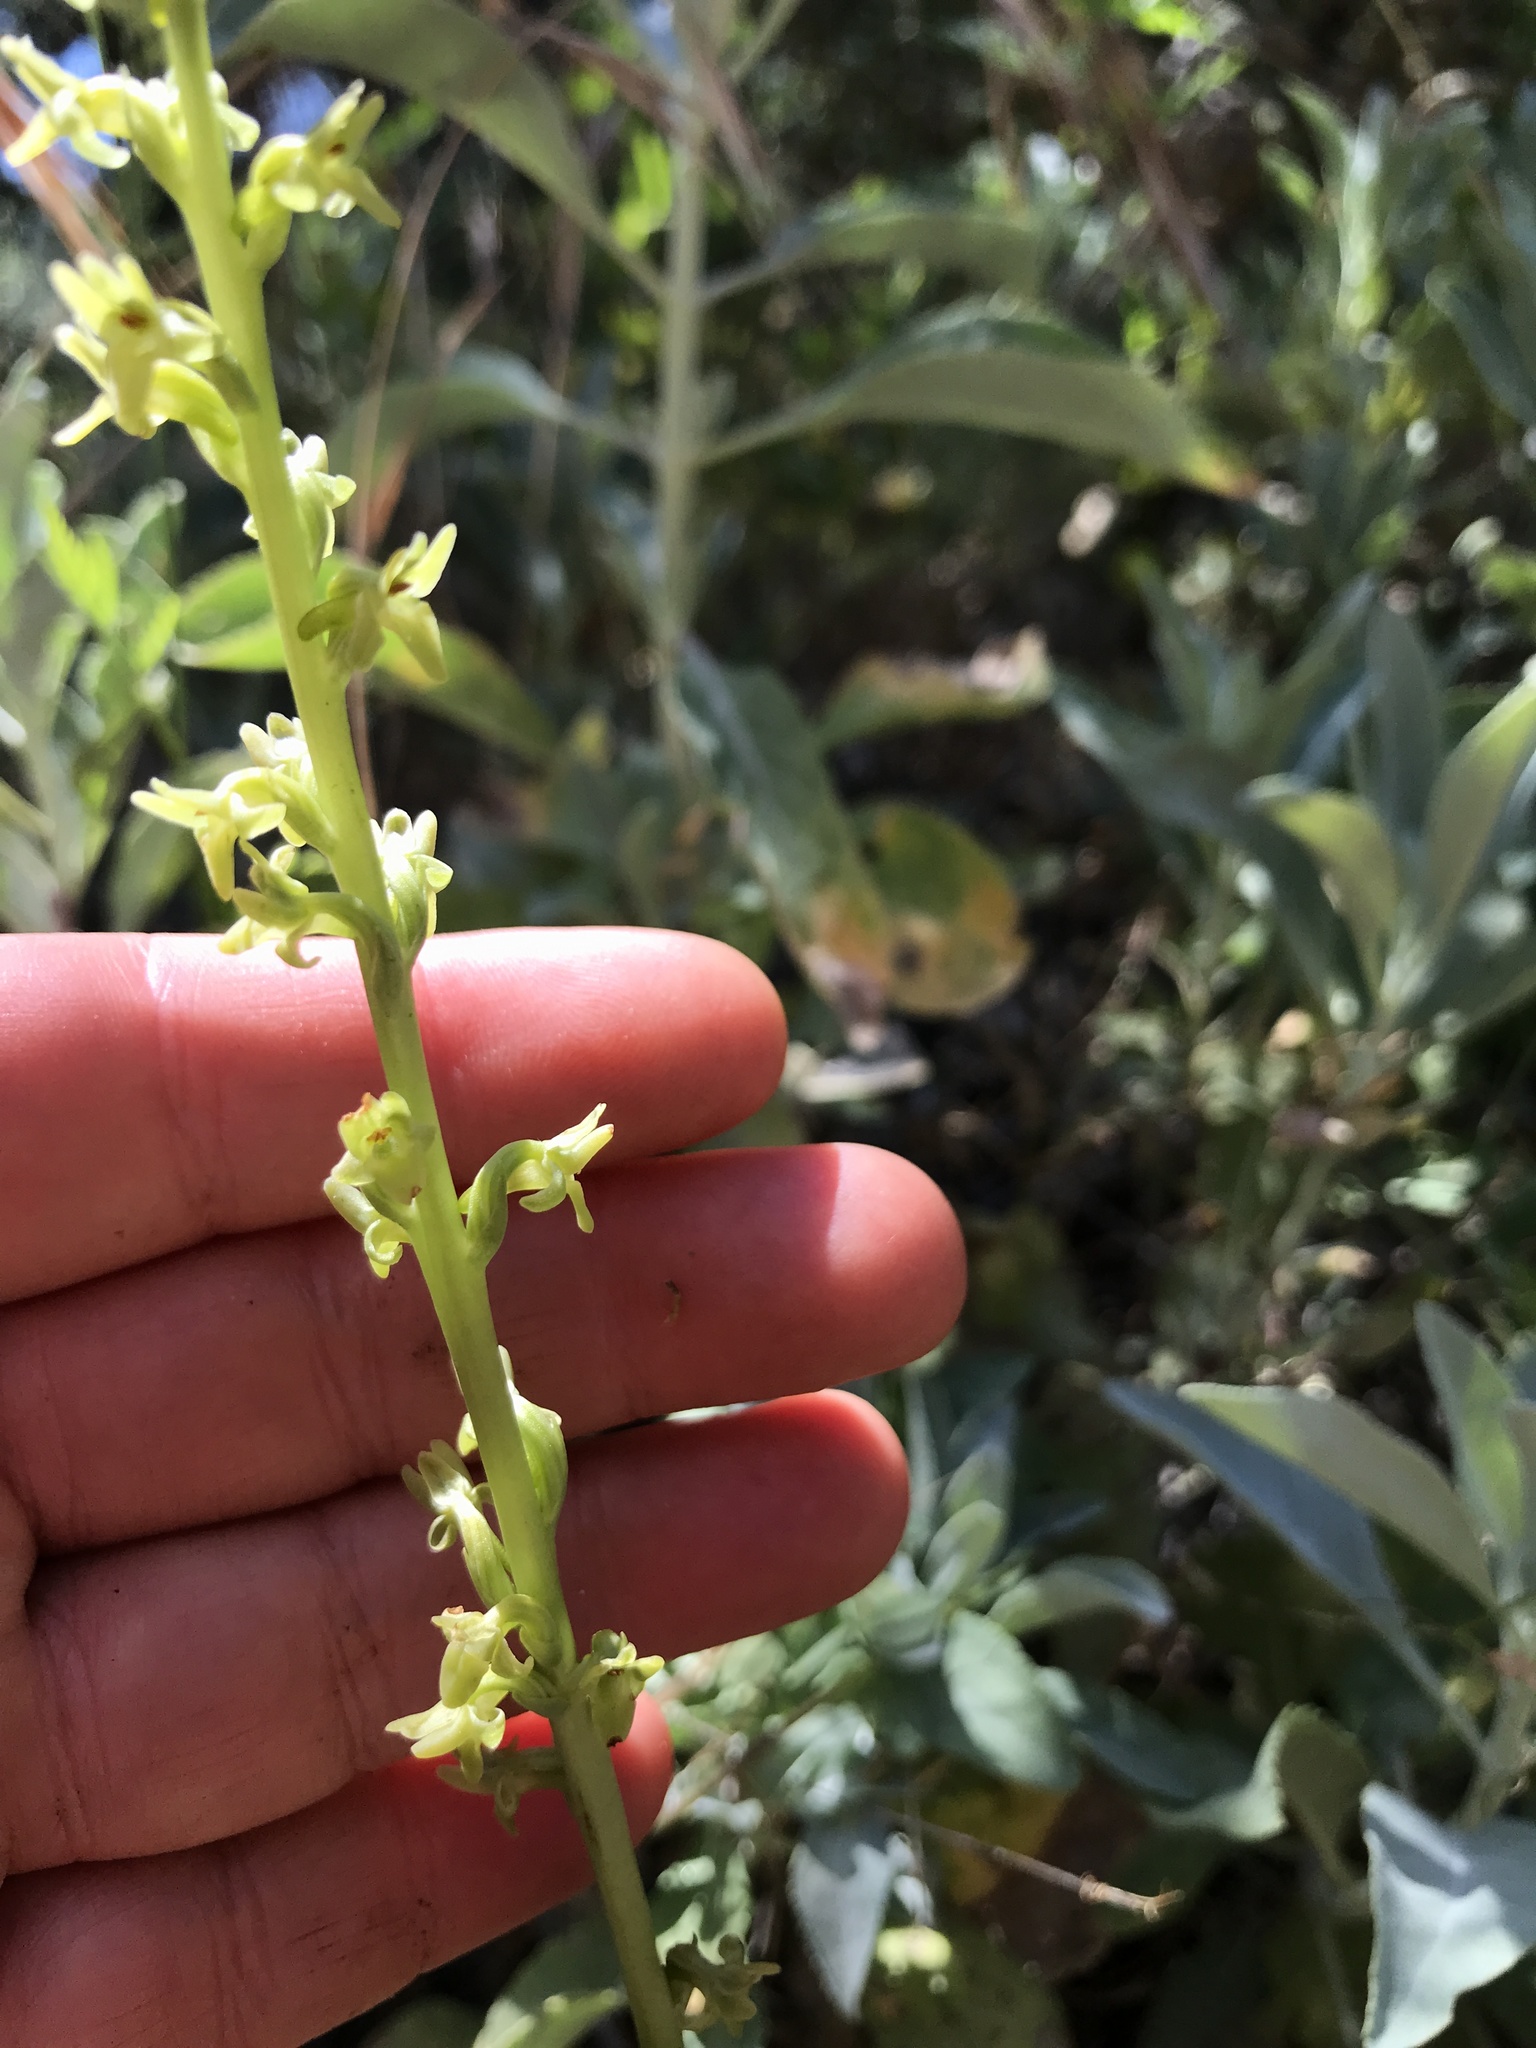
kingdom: Plantae
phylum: Tracheophyta
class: Liliopsida
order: Asparagales
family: Orchidaceae
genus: Platanthera
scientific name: Platanthera cooperi
